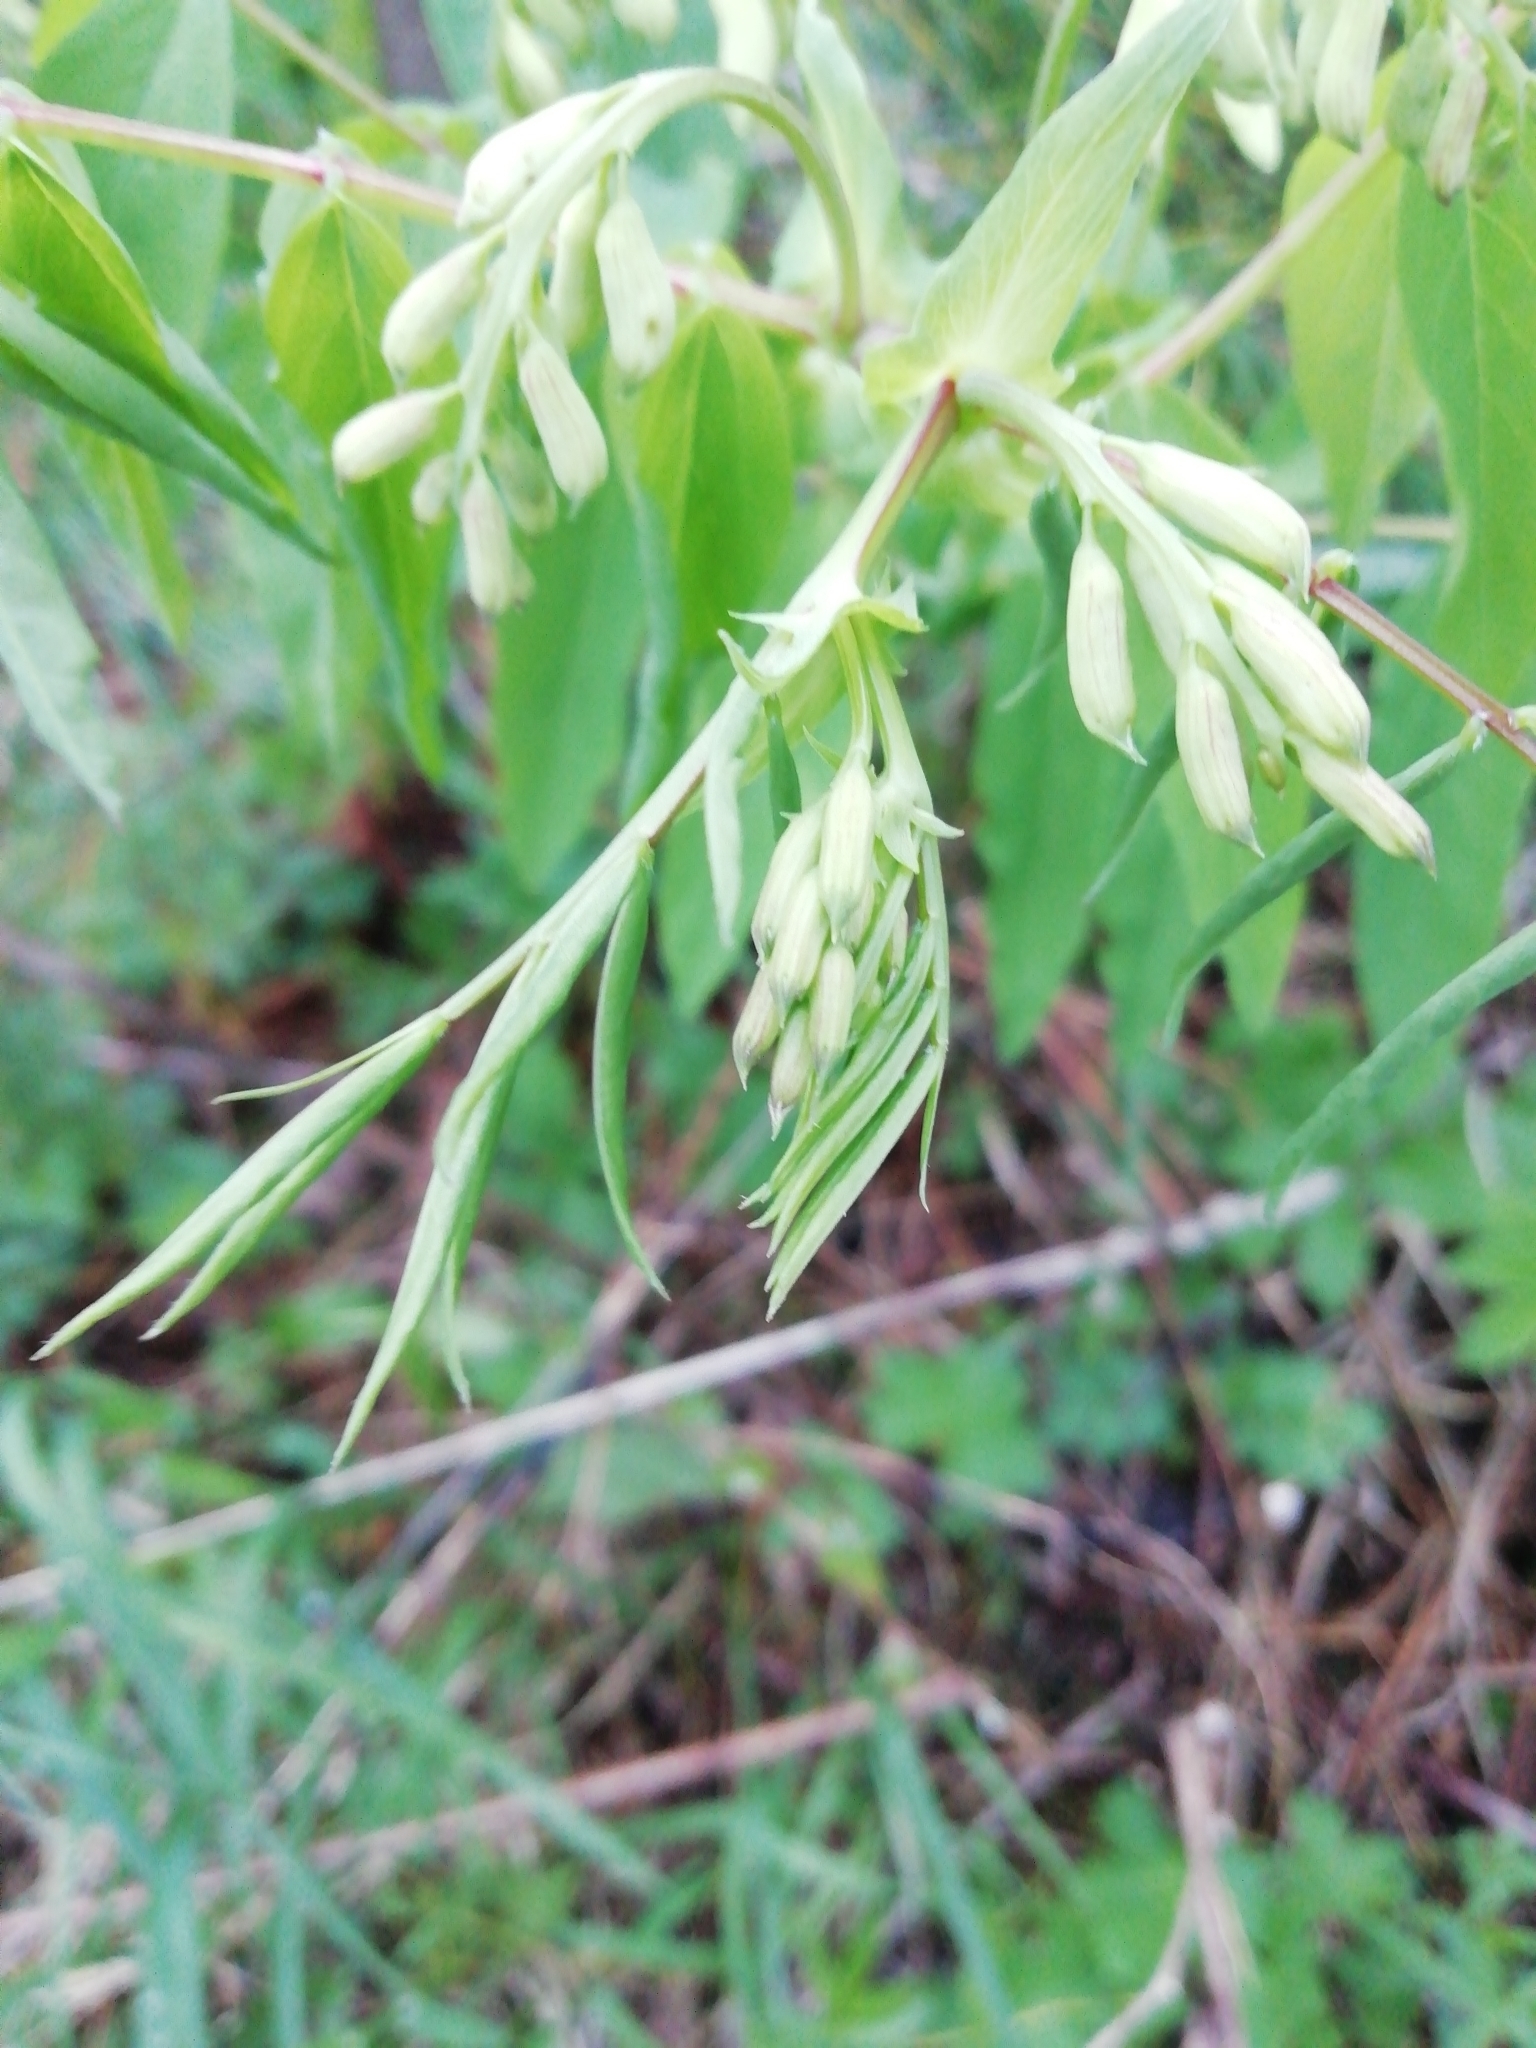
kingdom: Plantae
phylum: Tracheophyta
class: Magnoliopsida
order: Fabales
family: Fabaceae
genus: Lathyrus
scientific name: Lathyrus gmelinii
